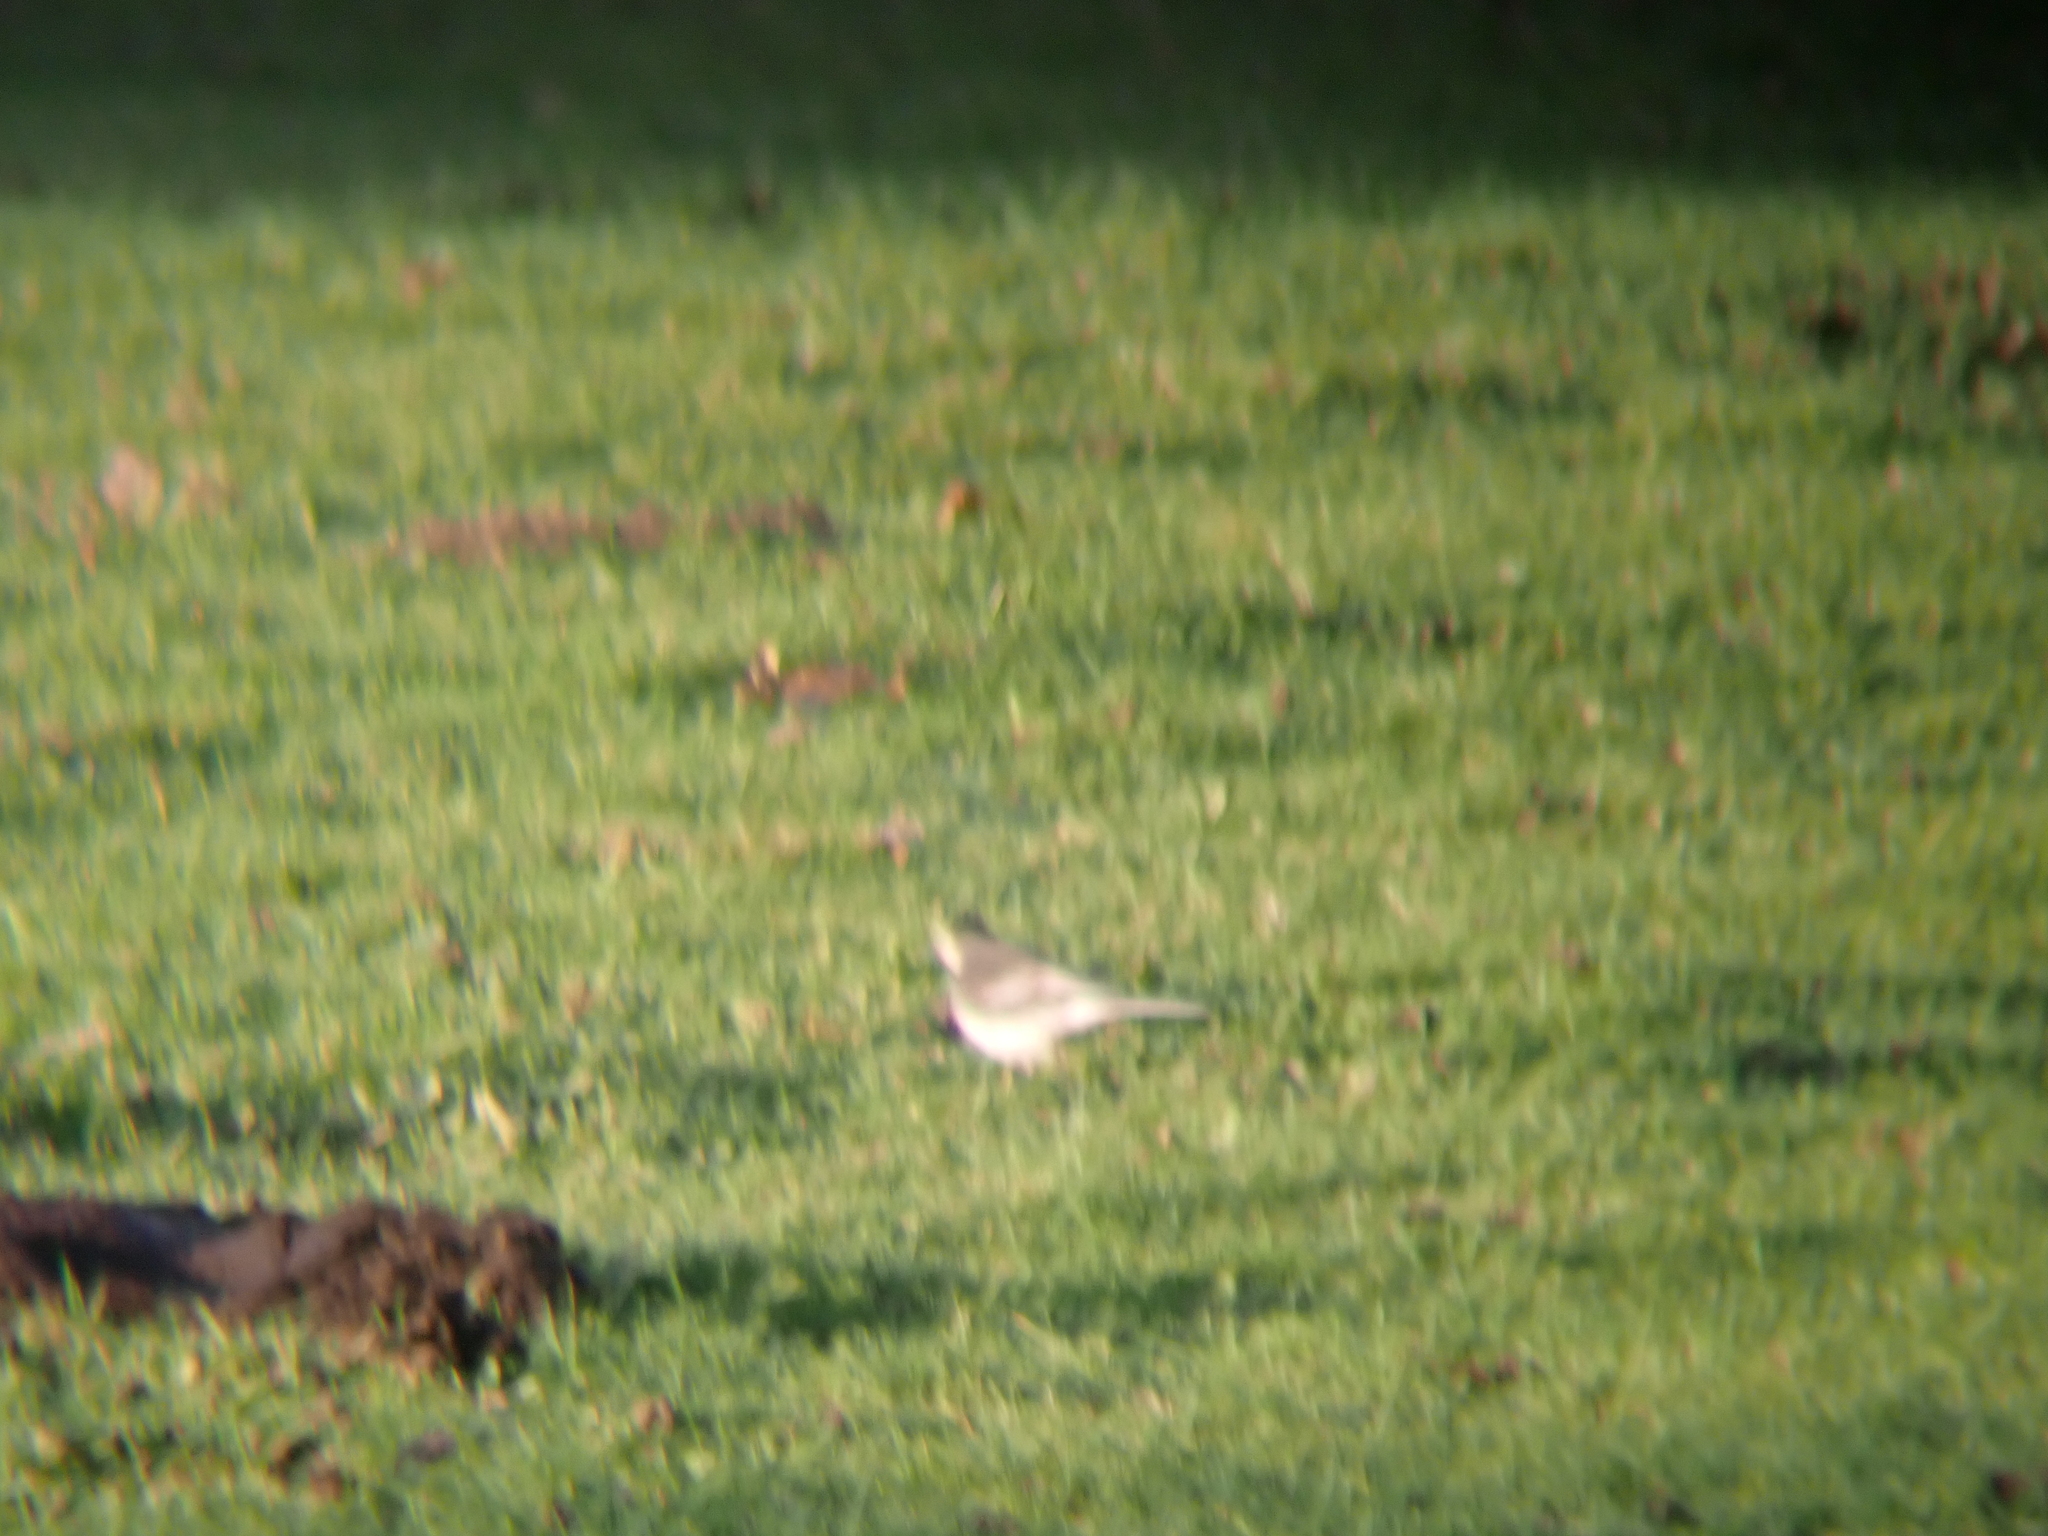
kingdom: Animalia
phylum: Chordata
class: Aves
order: Passeriformes
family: Motacillidae
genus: Motacilla
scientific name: Motacilla alba
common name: White wagtail
